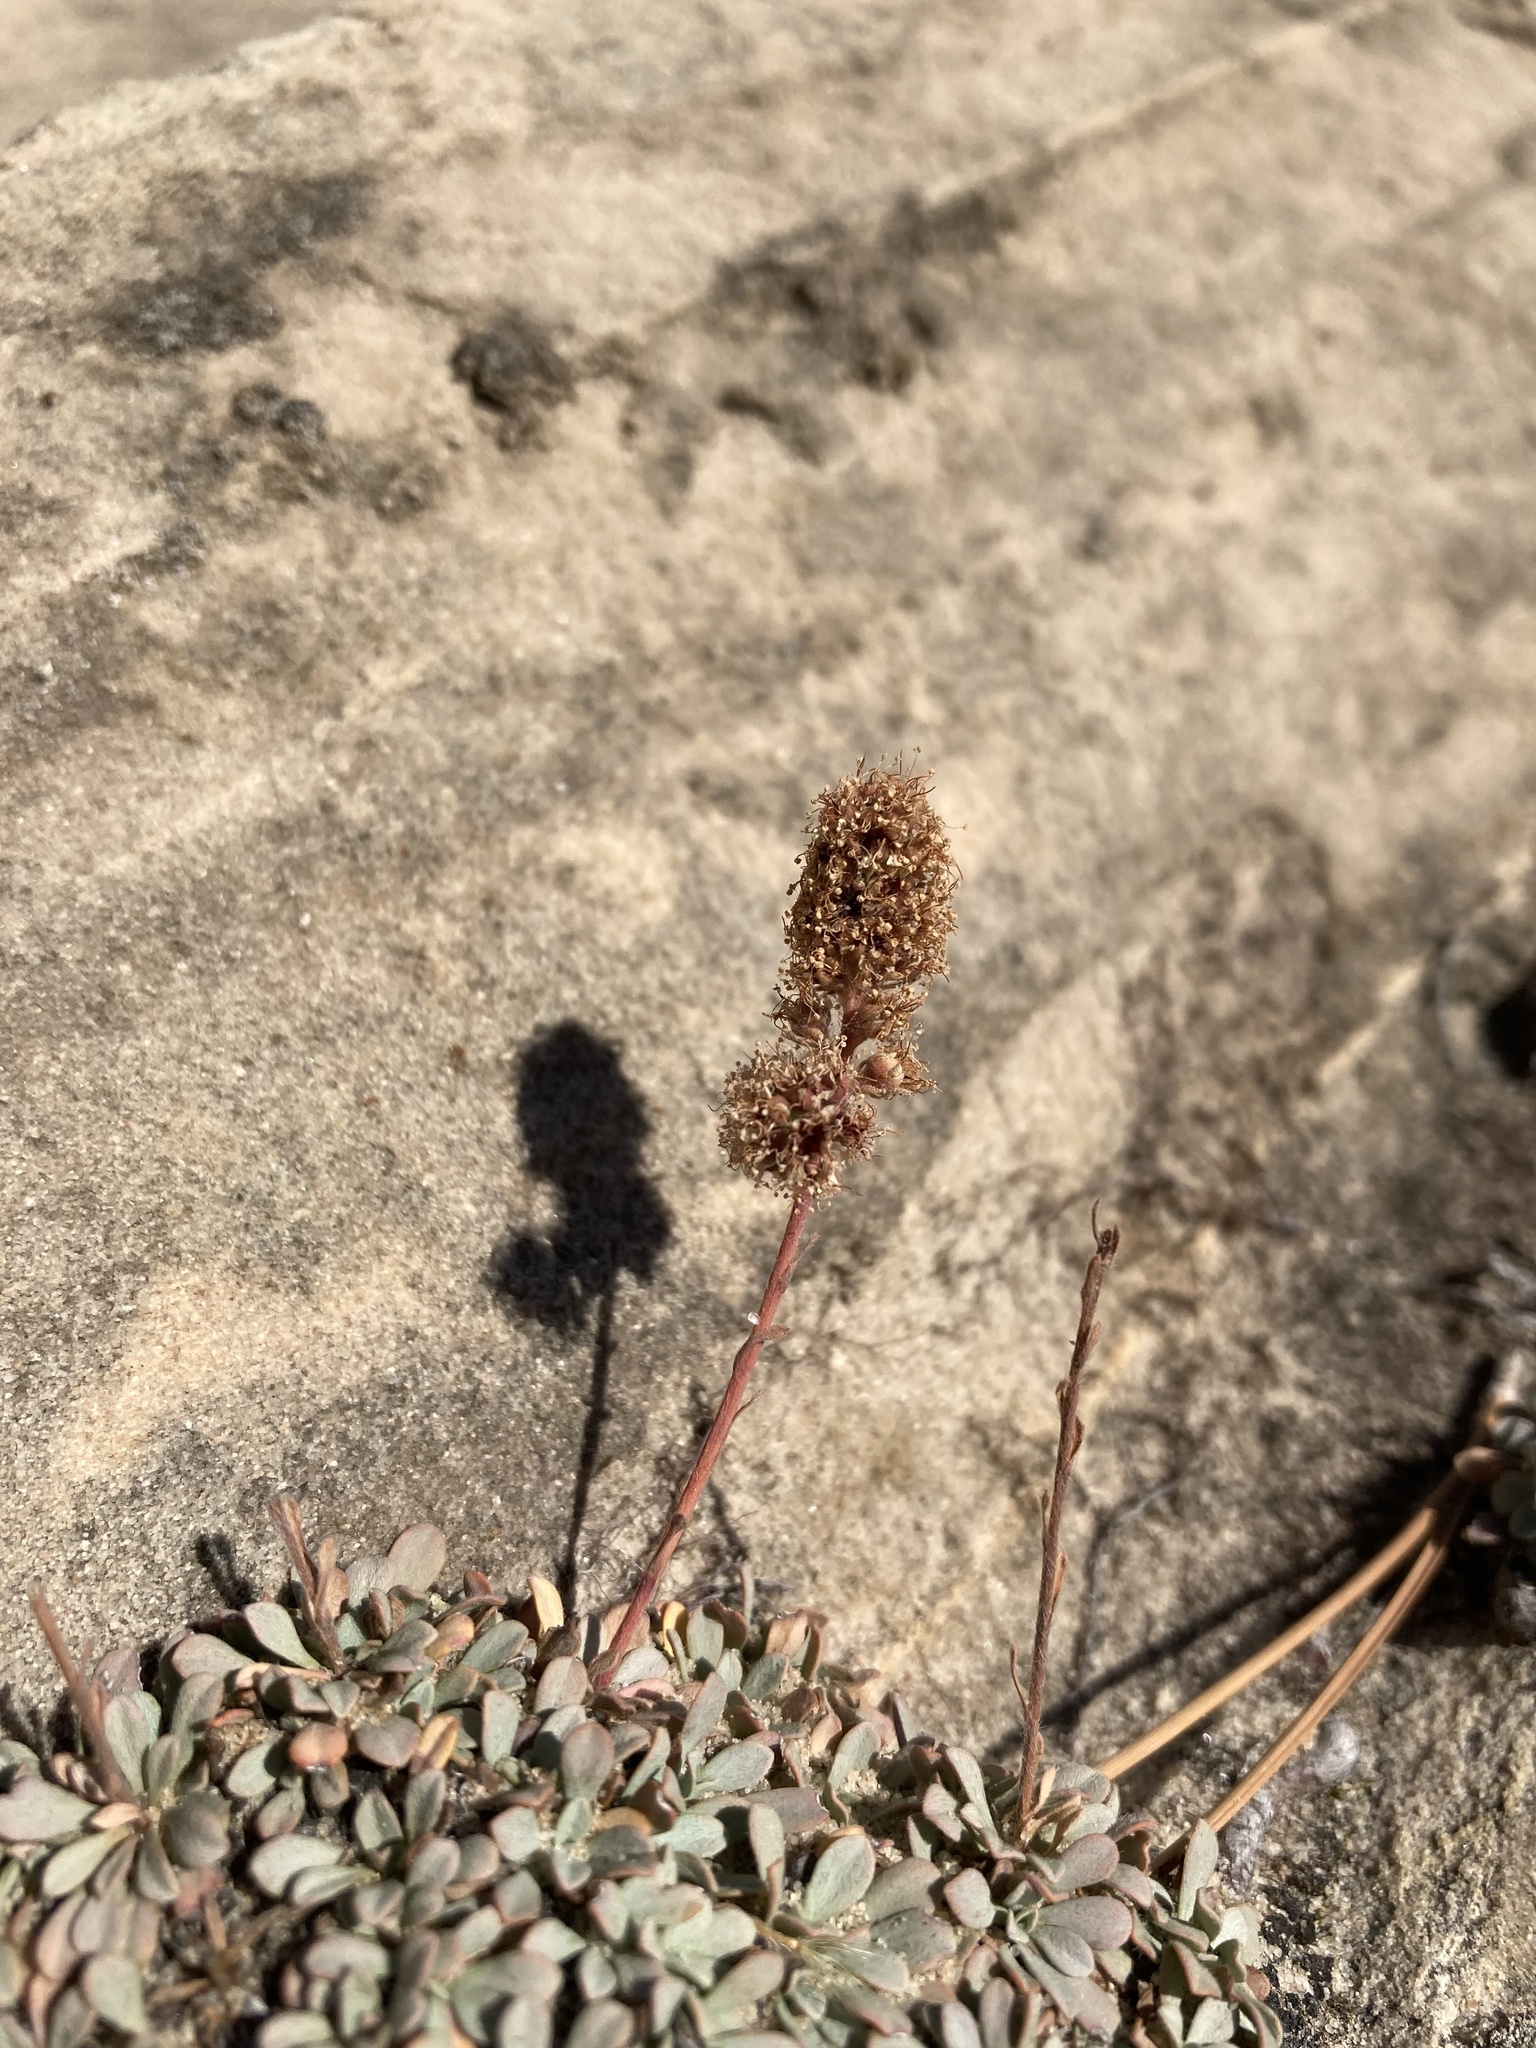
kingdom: Plantae
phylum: Tracheophyta
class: Magnoliopsida
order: Rosales
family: Rosaceae
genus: Petrophytum
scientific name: Petrophytum caespitosum
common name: Mat rockspirea
